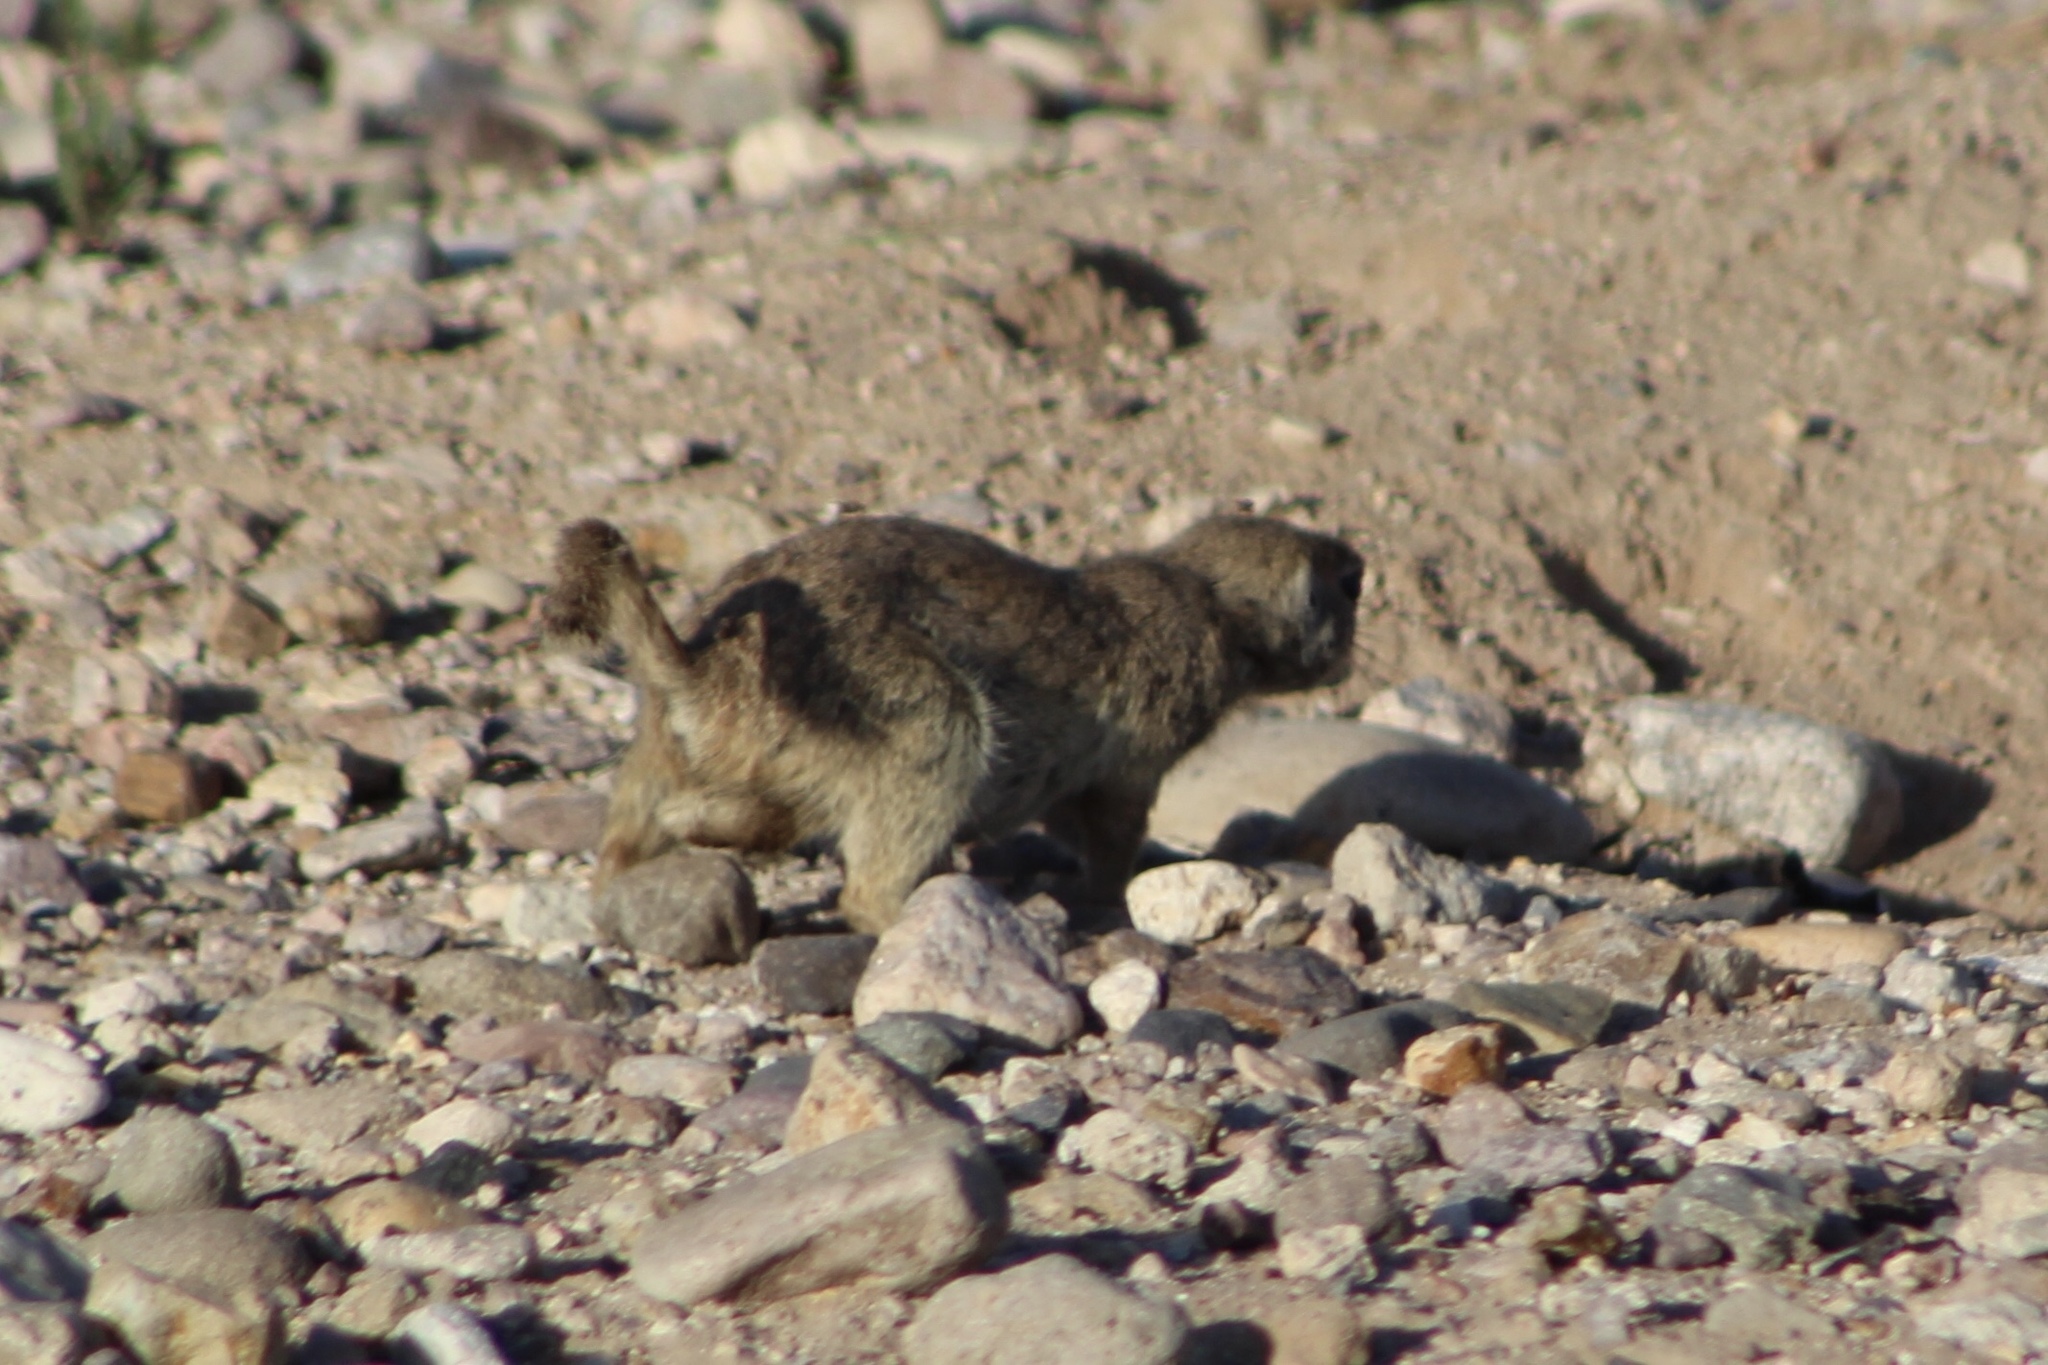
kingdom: Animalia
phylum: Chordata
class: Mammalia
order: Rodentia
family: Sciuridae
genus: Xerospermophilus
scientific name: Xerospermophilus tereticaudus
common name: Round-tailed ground squirrel
